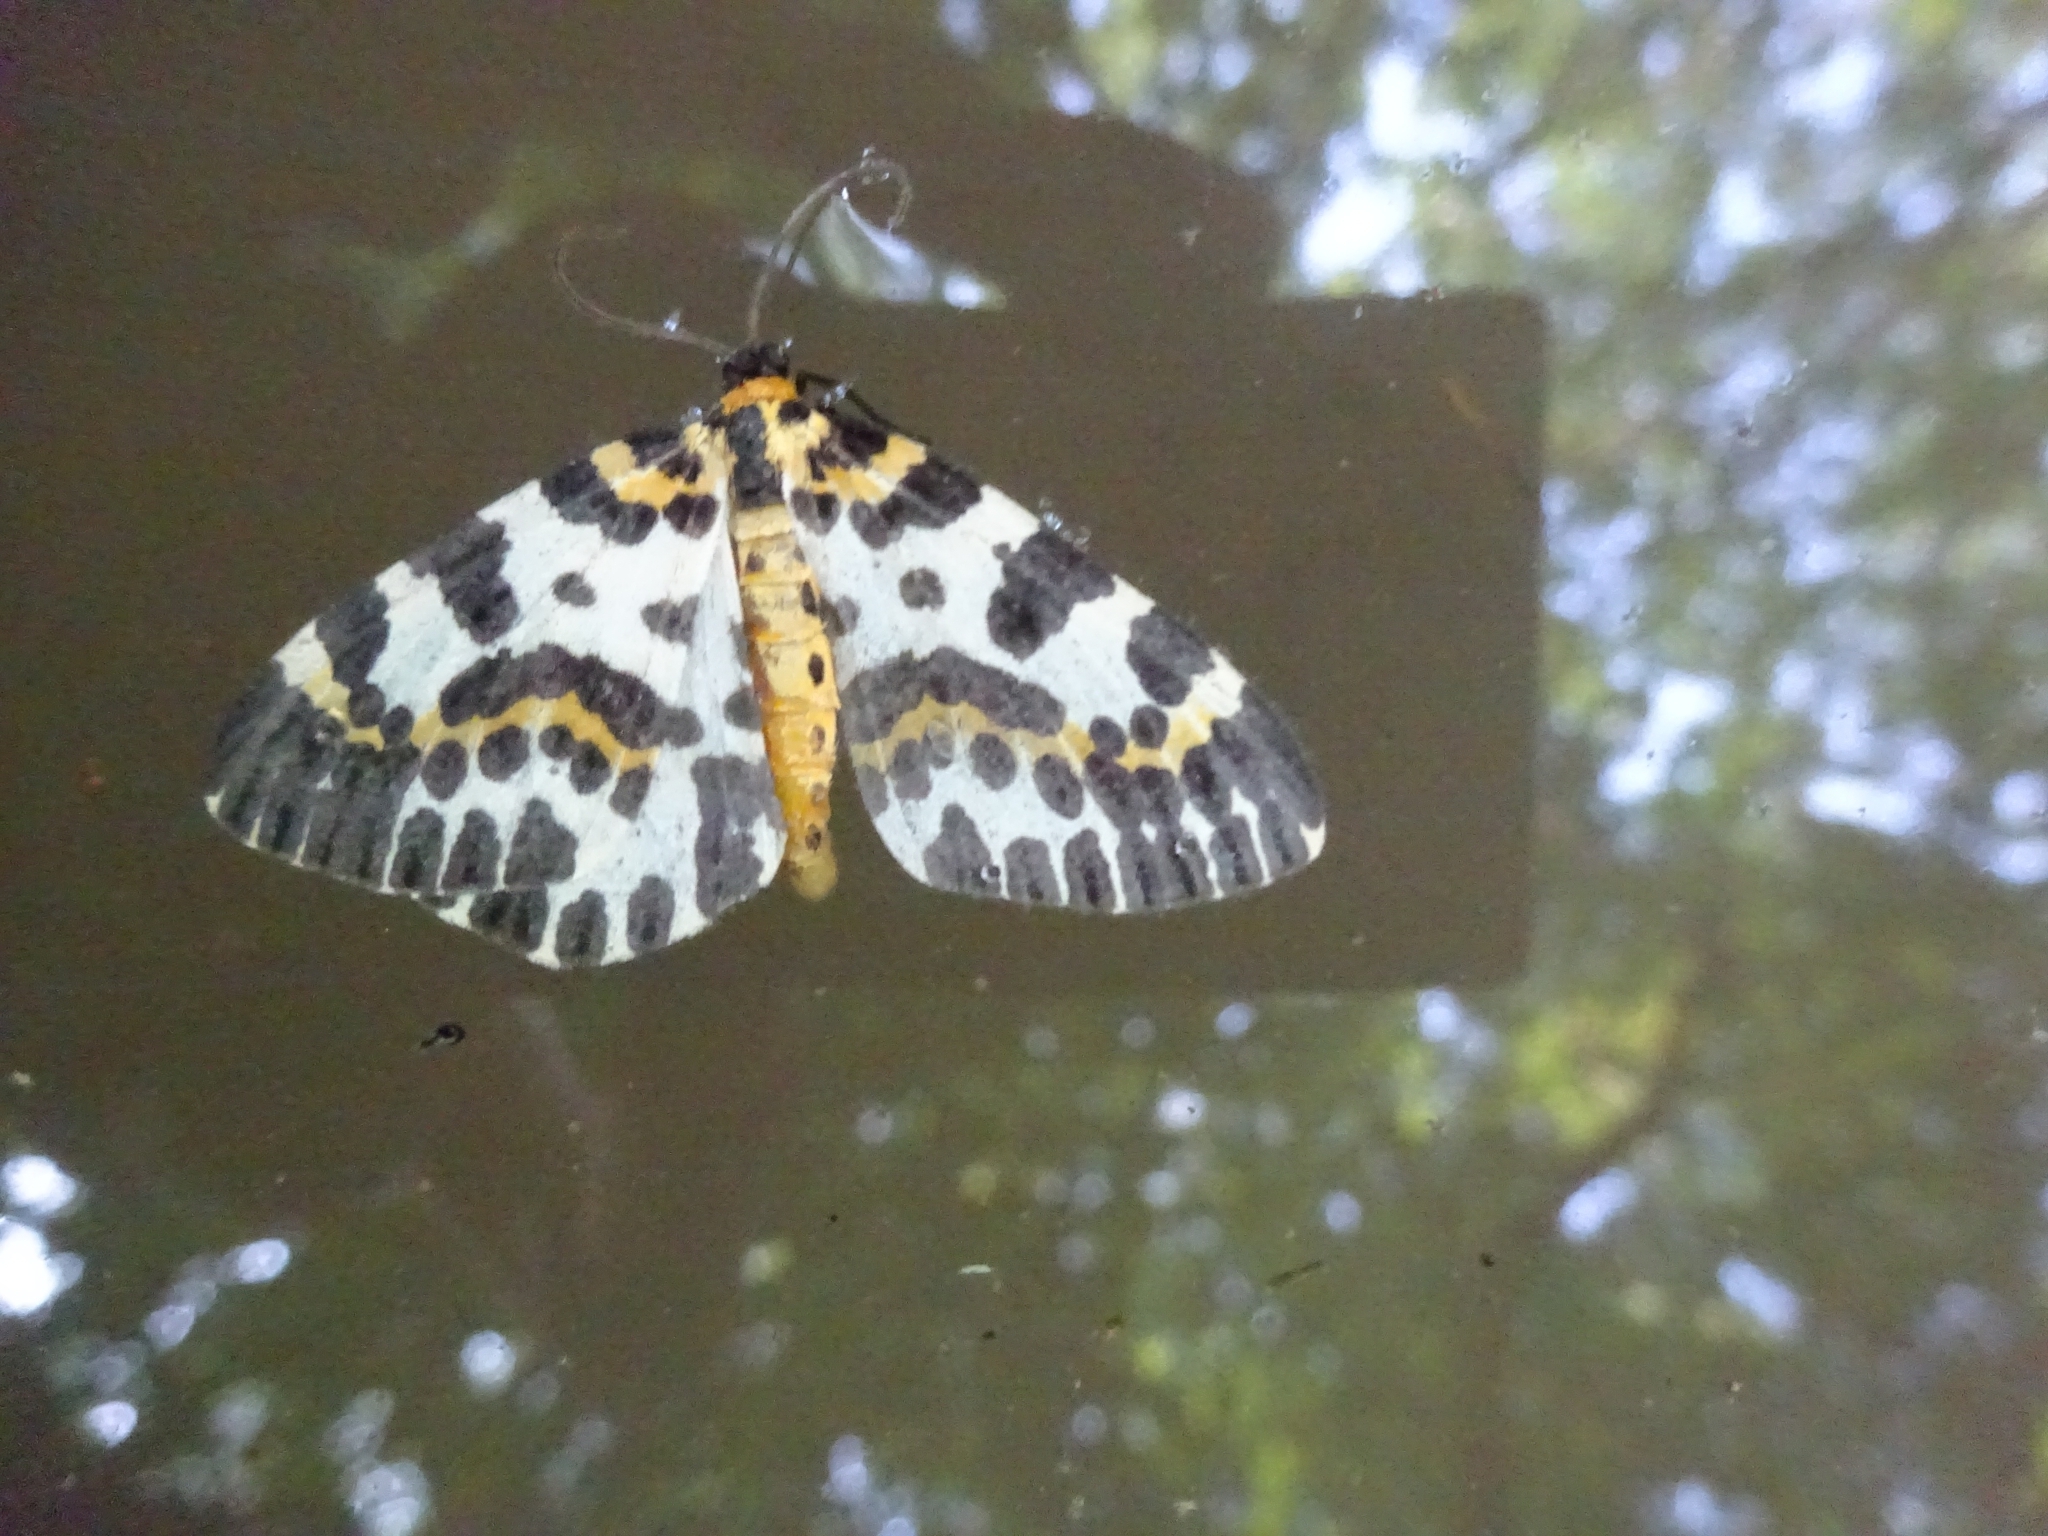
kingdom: Animalia
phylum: Arthropoda
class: Insecta
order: Lepidoptera
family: Geometridae
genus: Abraxas
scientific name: Abraxas grossulariata
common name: Magpie
